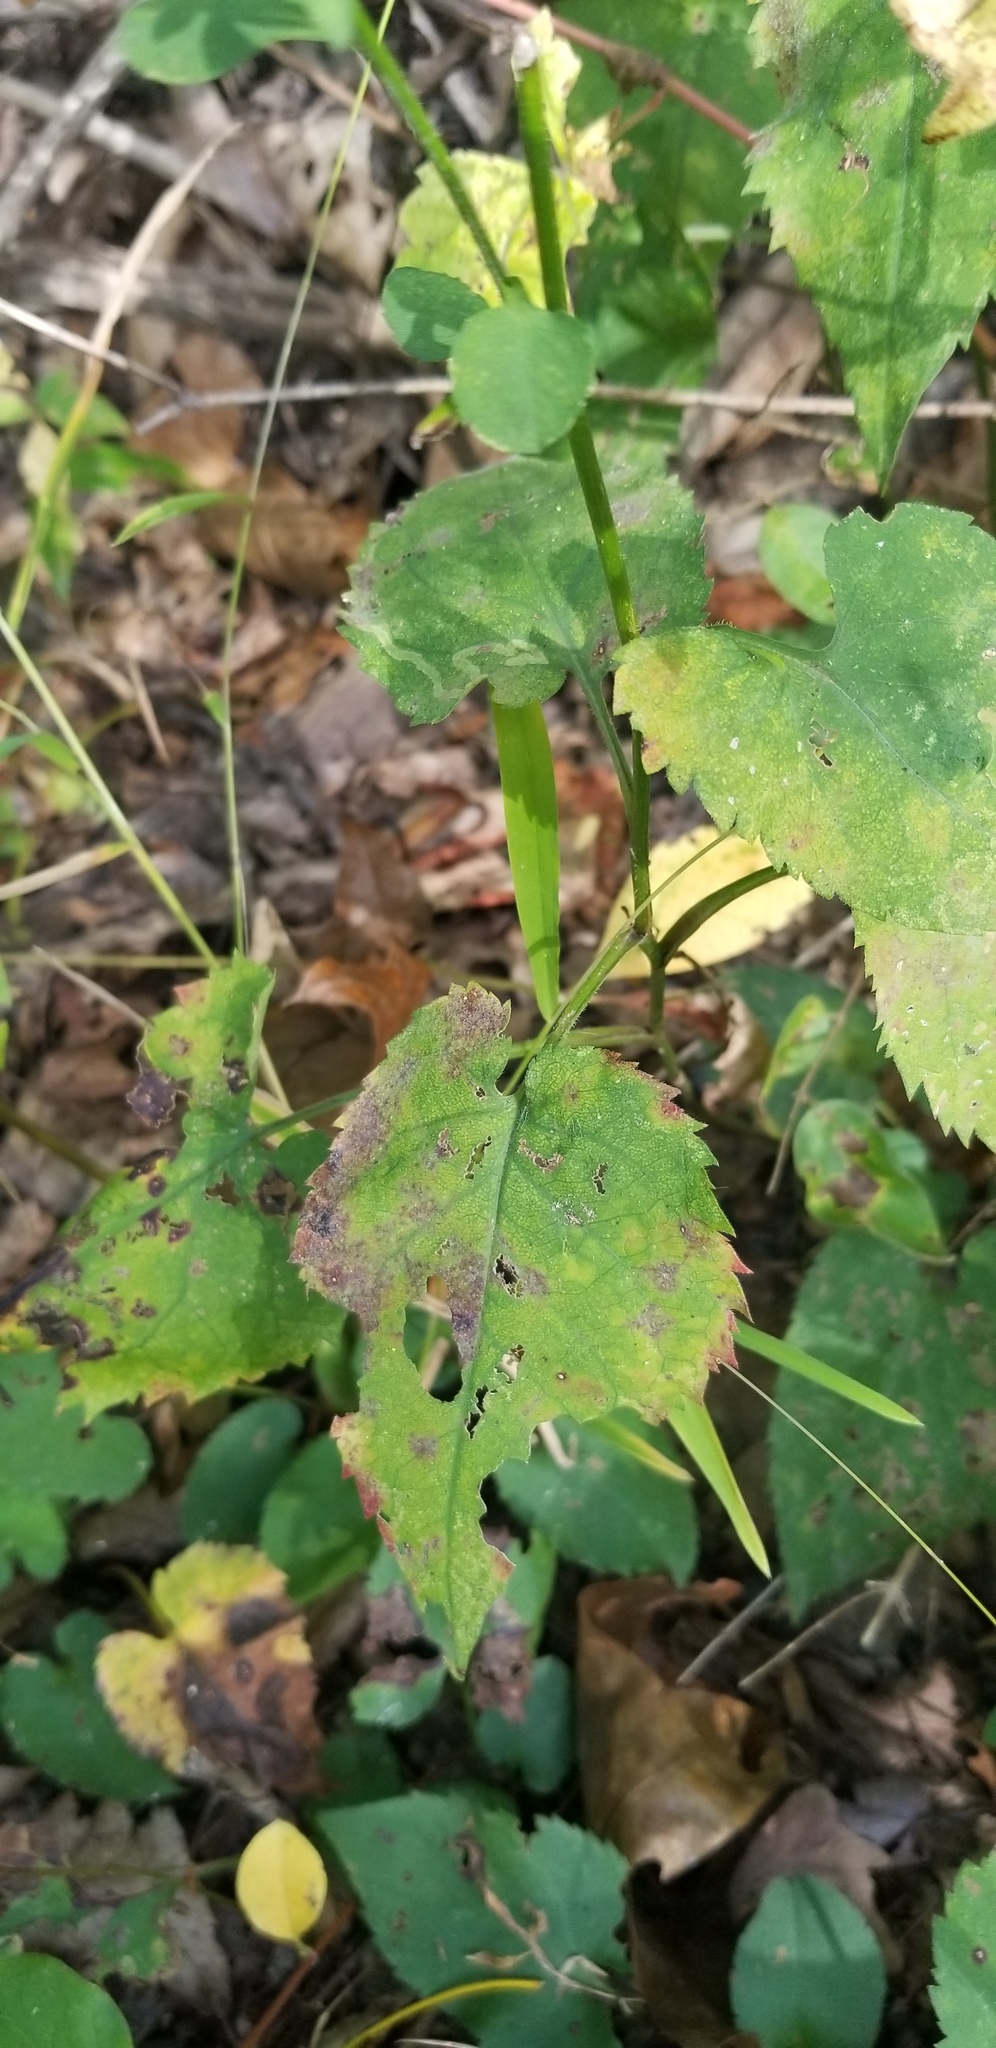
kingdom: Plantae
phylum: Tracheophyta
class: Magnoliopsida
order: Asterales
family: Asteraceae
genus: Symphyotrichum
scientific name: Symphyotrichum cordifolium
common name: Beeweed
